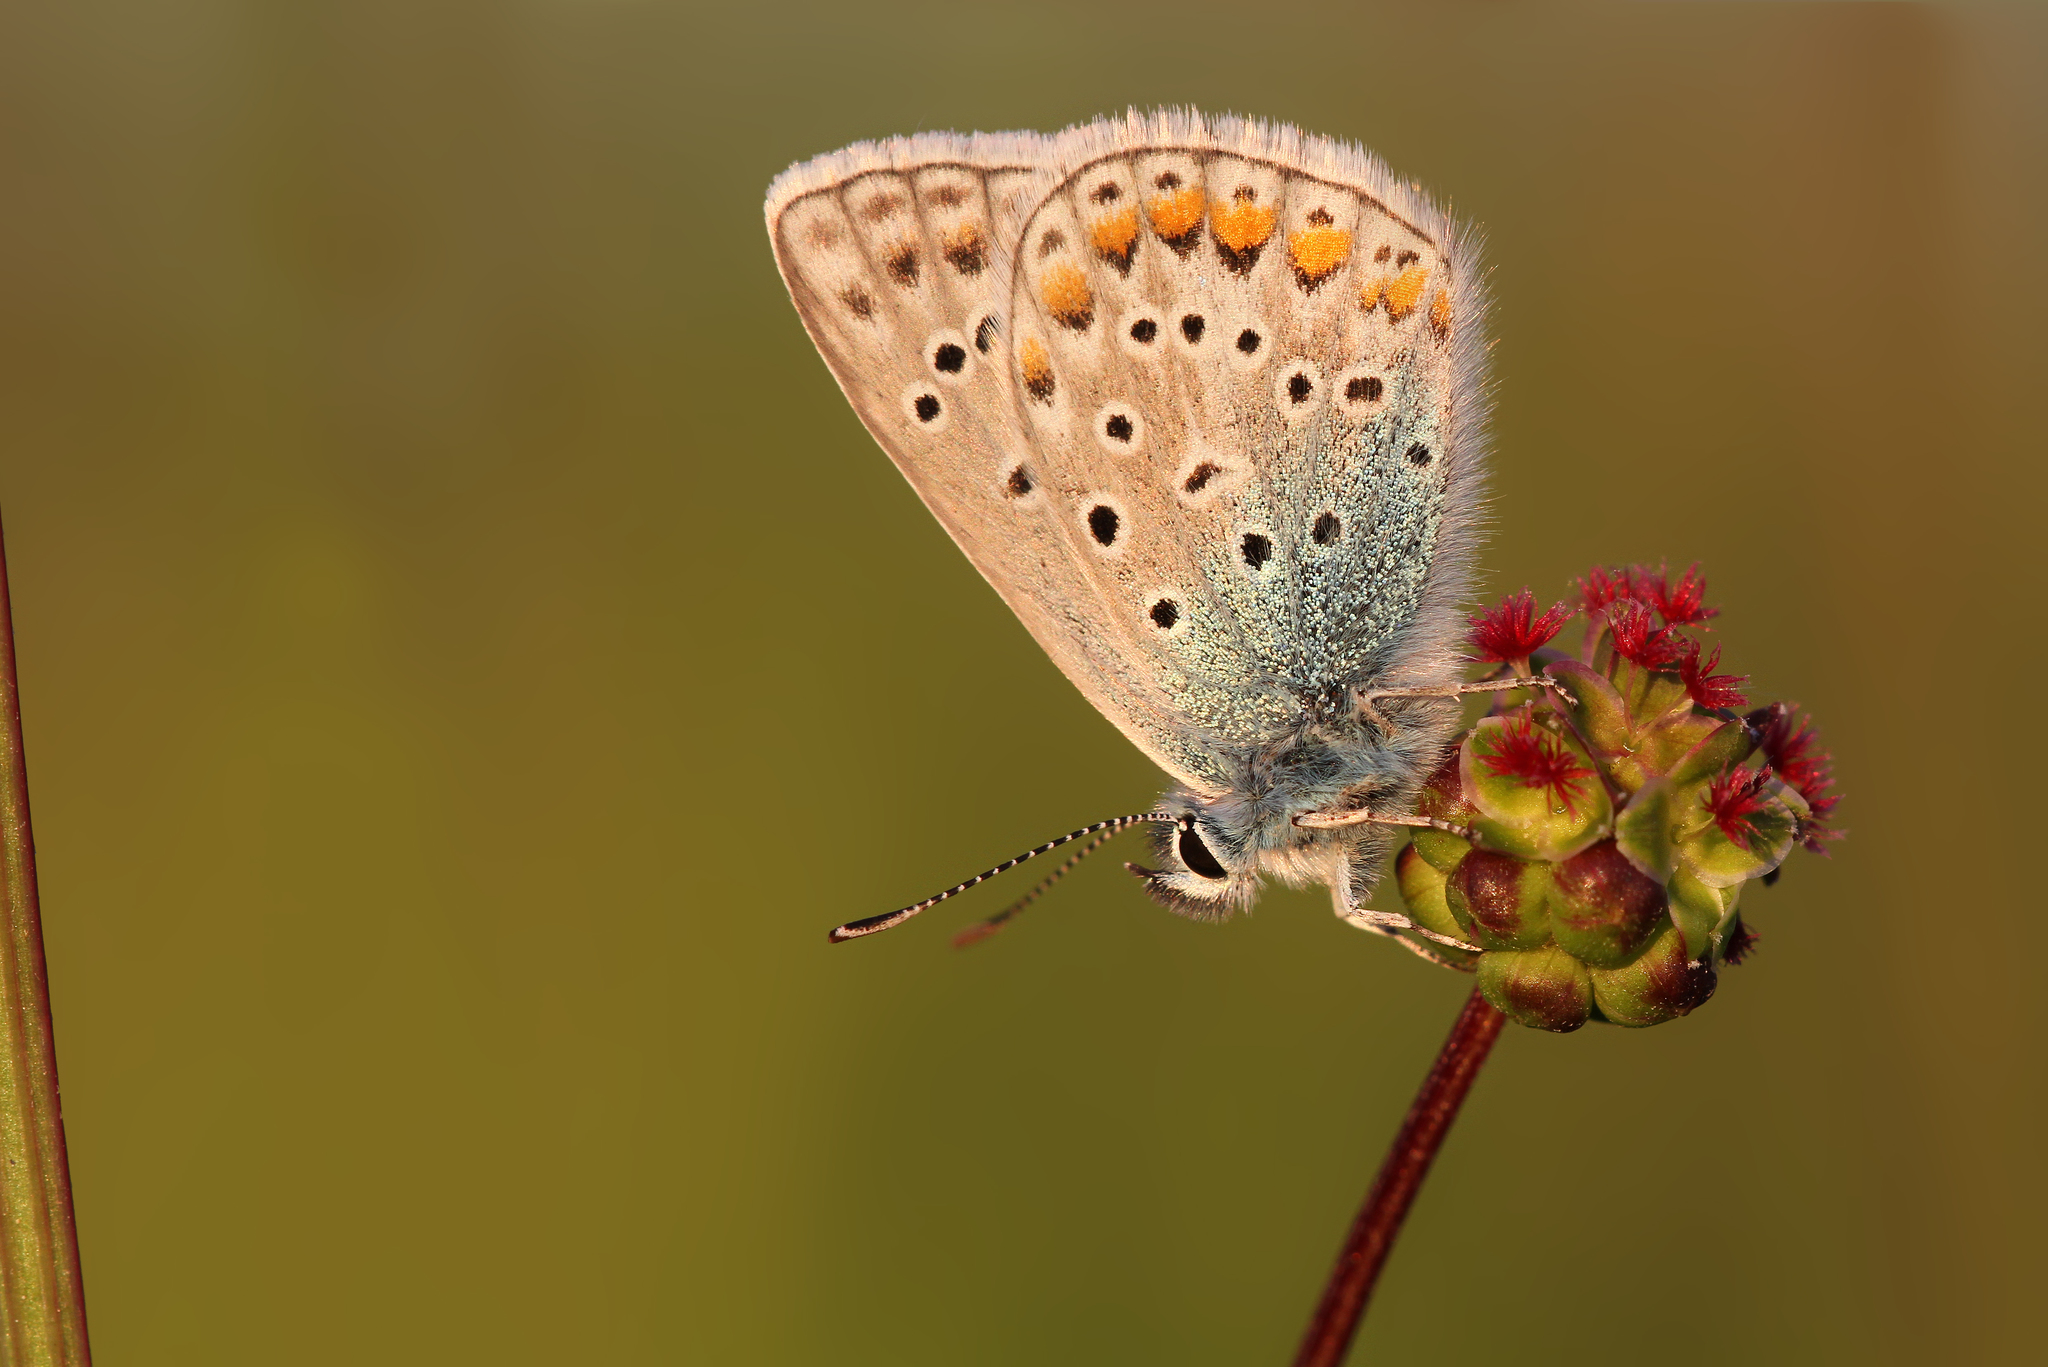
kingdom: Animalia
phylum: Arthropoda
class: Insecta
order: Lepidoptera
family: Lycaenidae
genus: Polyommatus
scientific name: Polyommatus icarus
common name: Common blue
